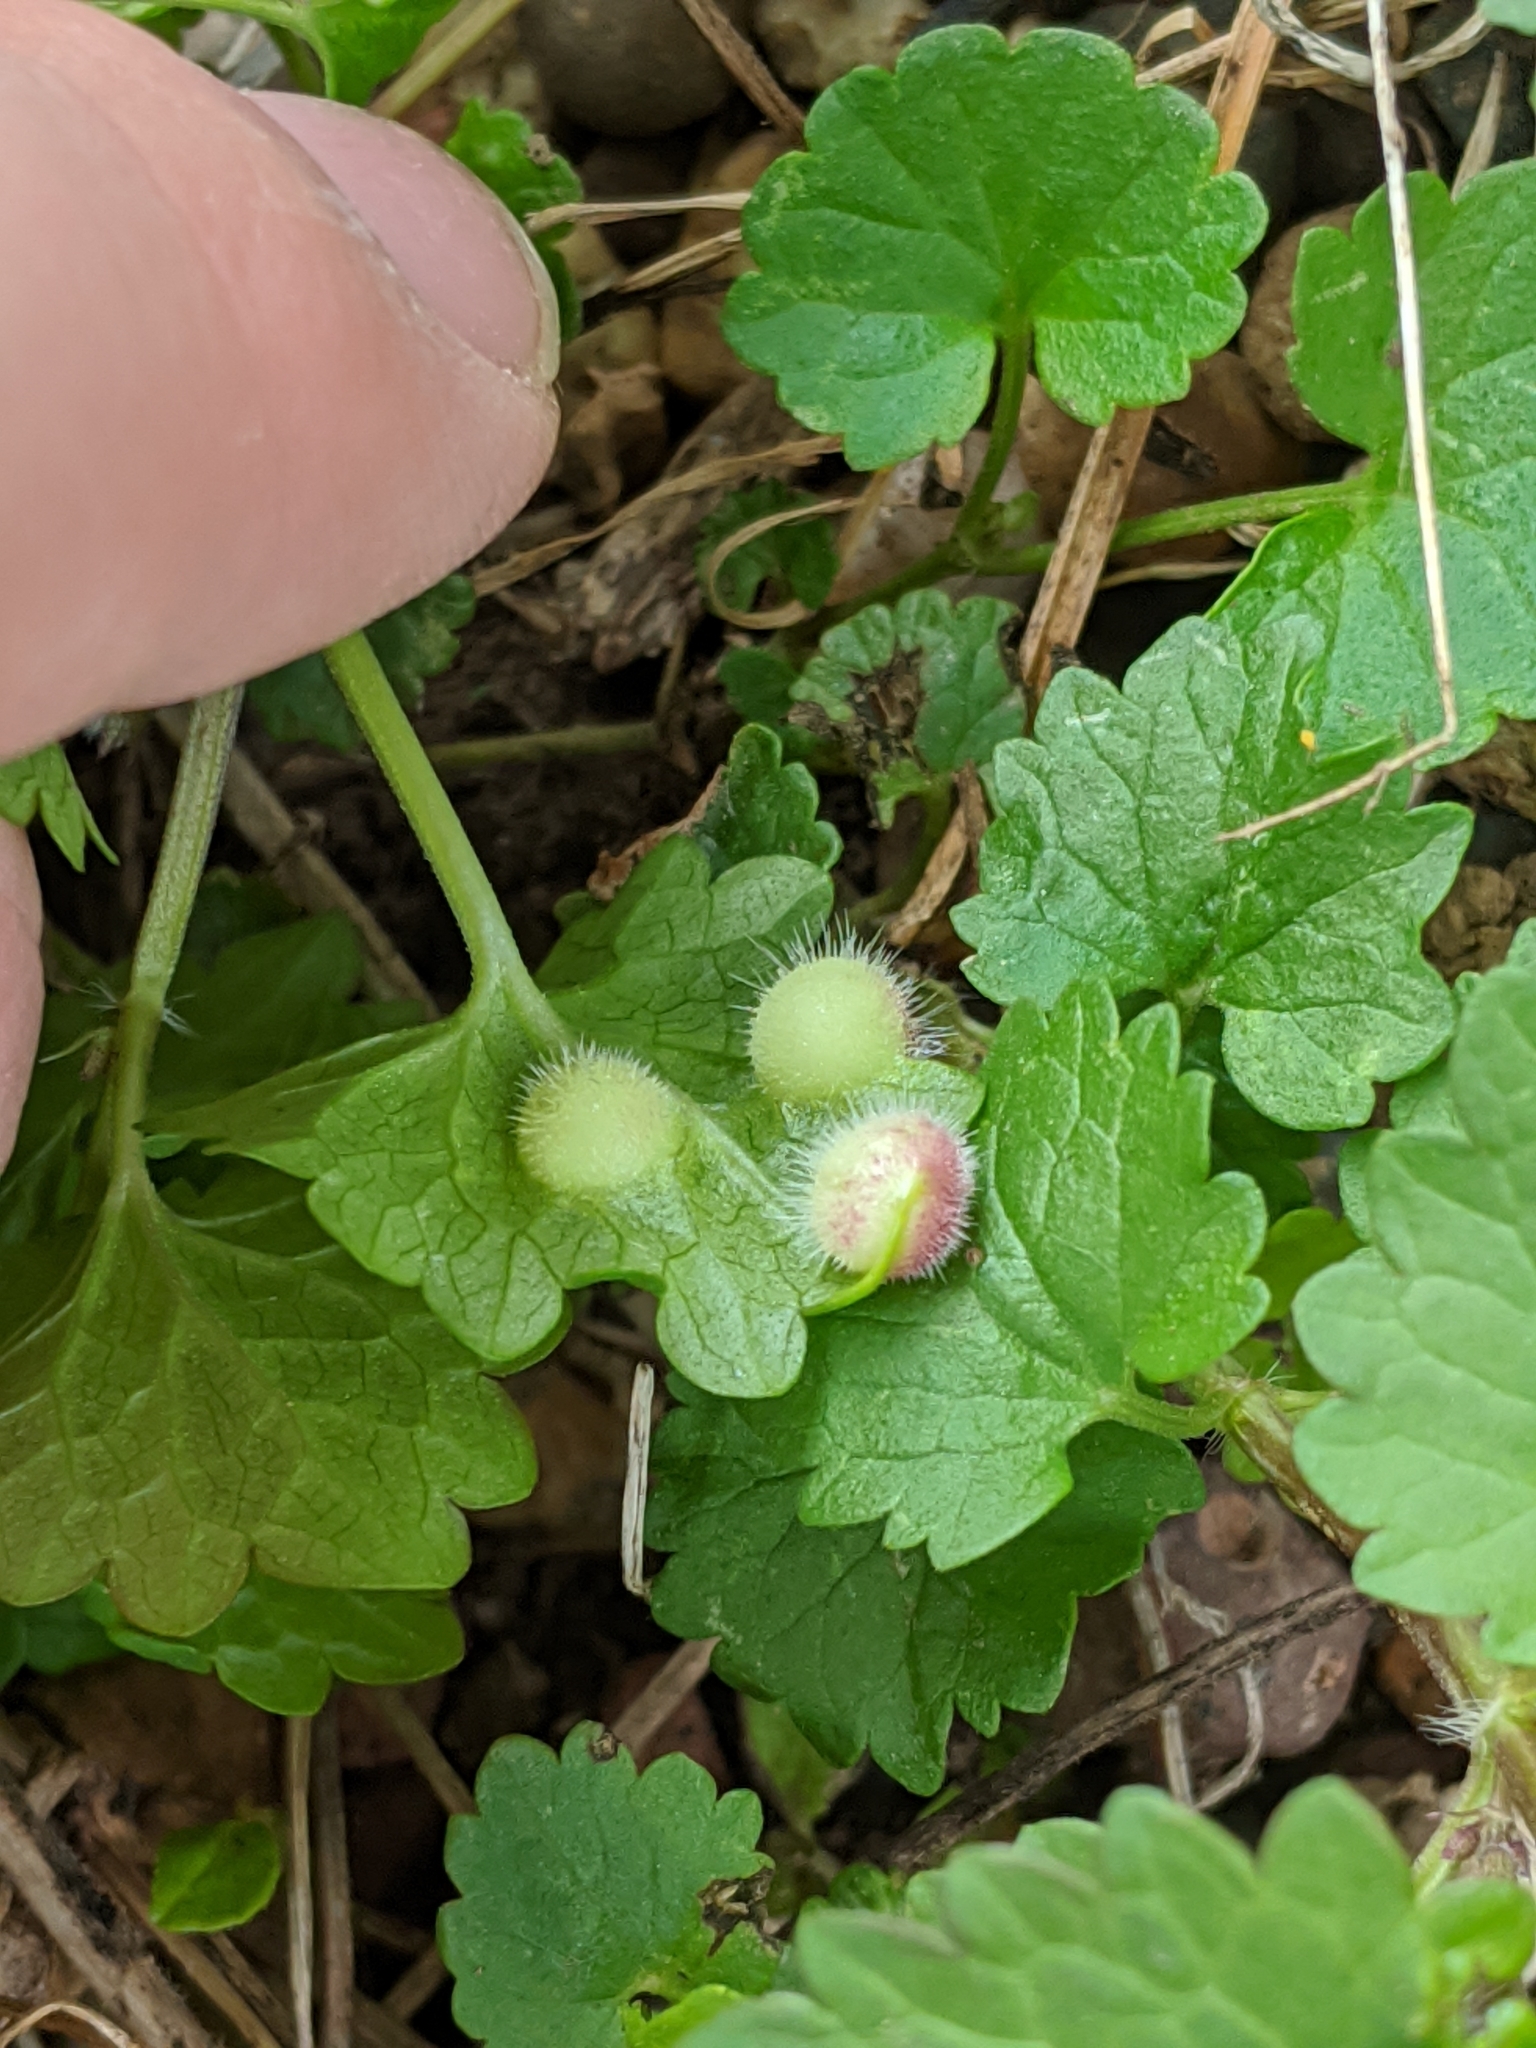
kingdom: Animalia
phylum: Arthropoda
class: Insecta
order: Hymenoptera
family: Cynipidae
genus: Liposthenes
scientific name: Liposthenes glechomae
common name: Gall wasp
